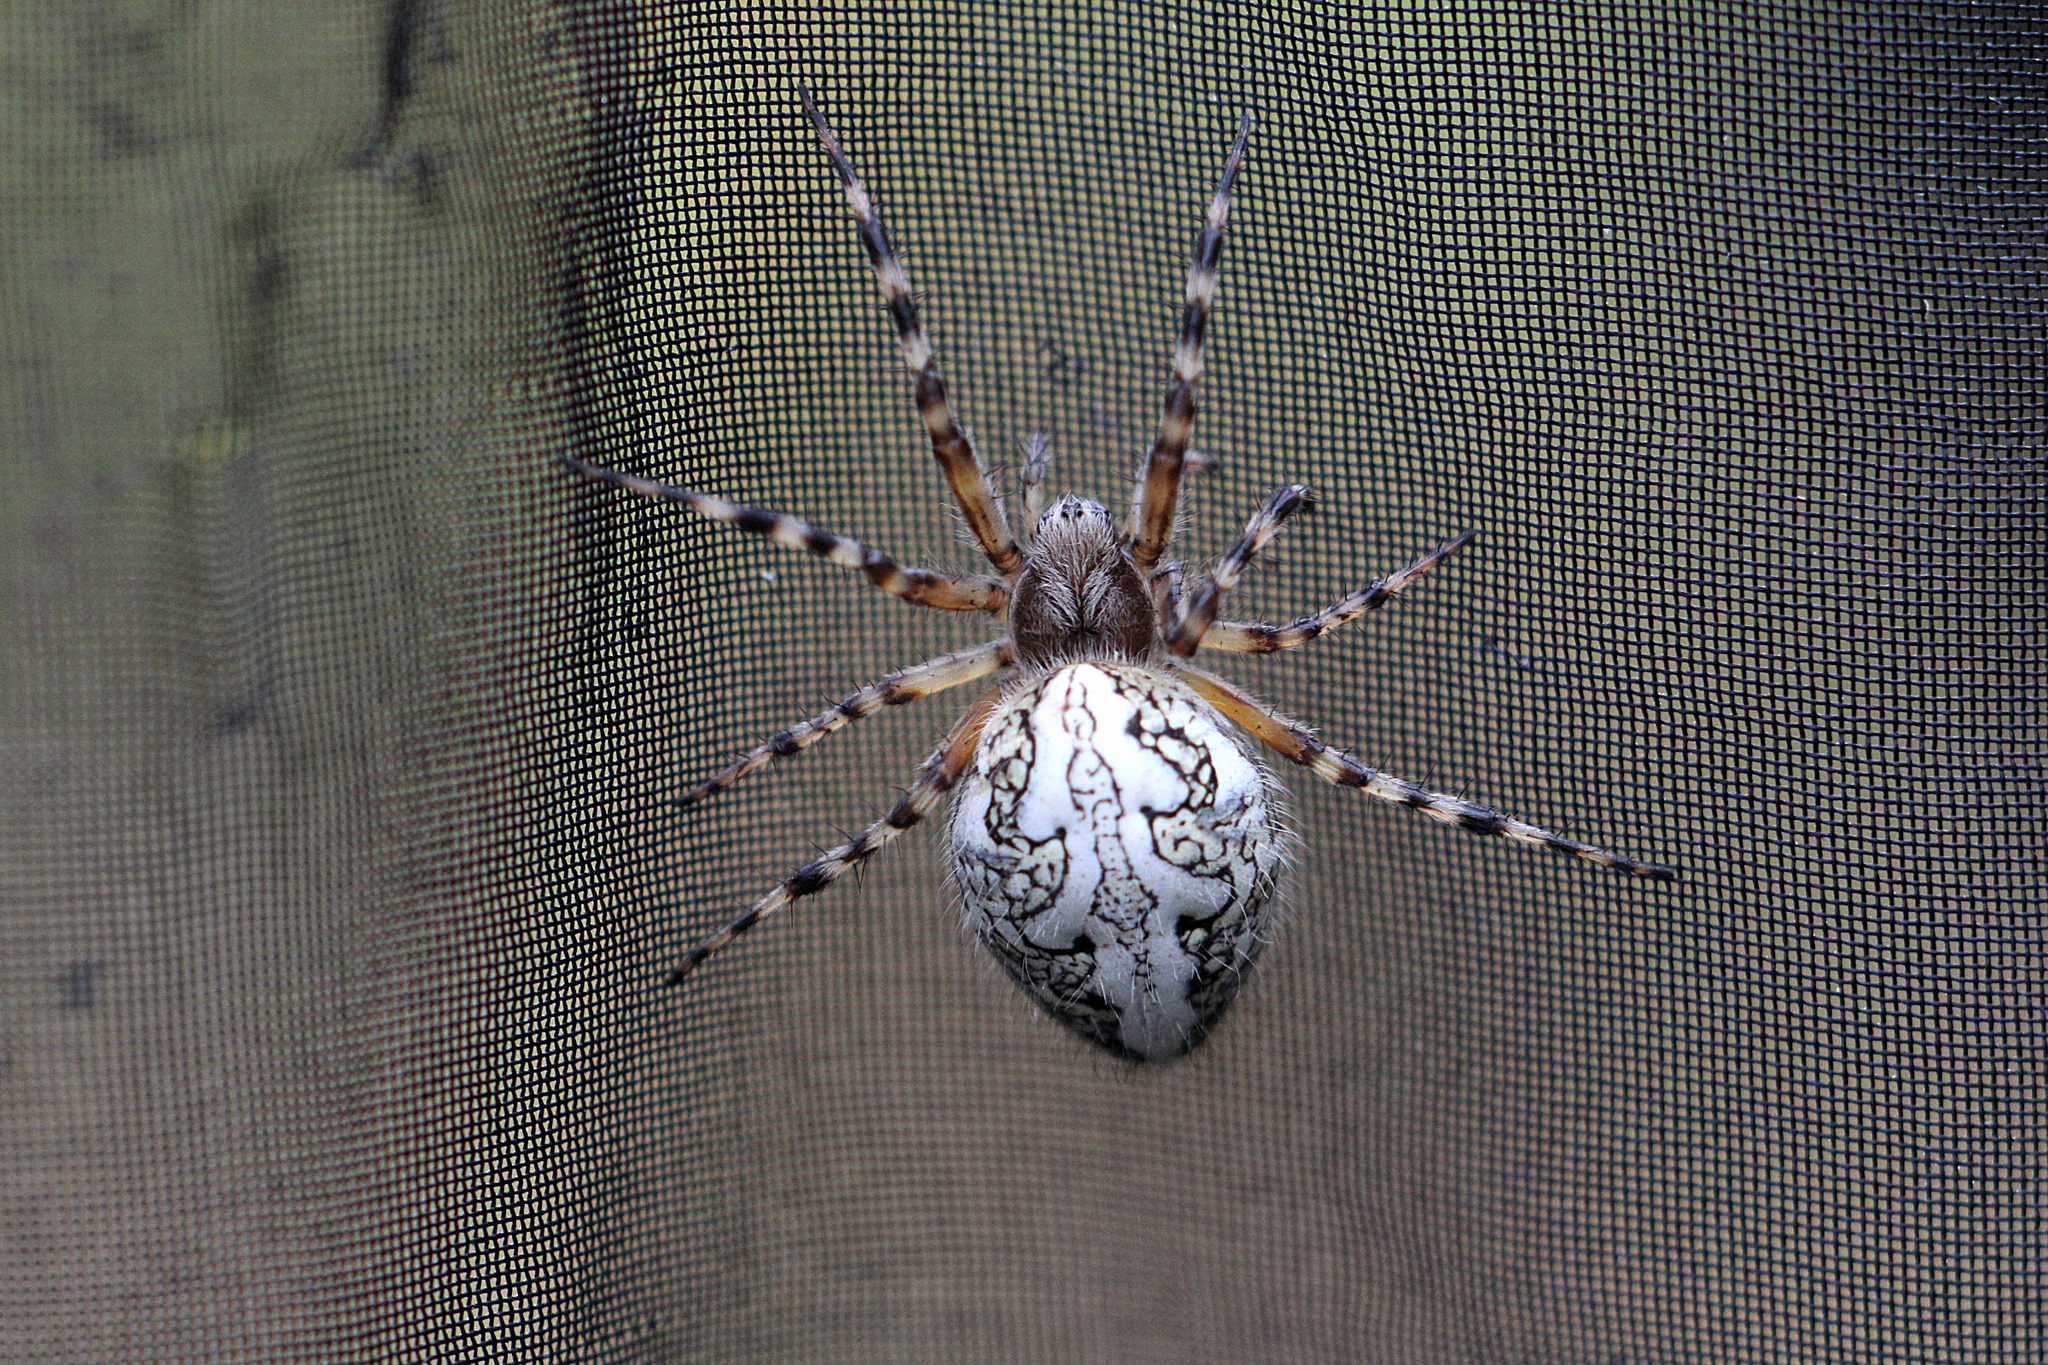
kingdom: Animalia
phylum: Arthropoda
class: Arachnida
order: Araneae
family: Araneidae
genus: Aculepeira
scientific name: Aculepeira ceropegia
